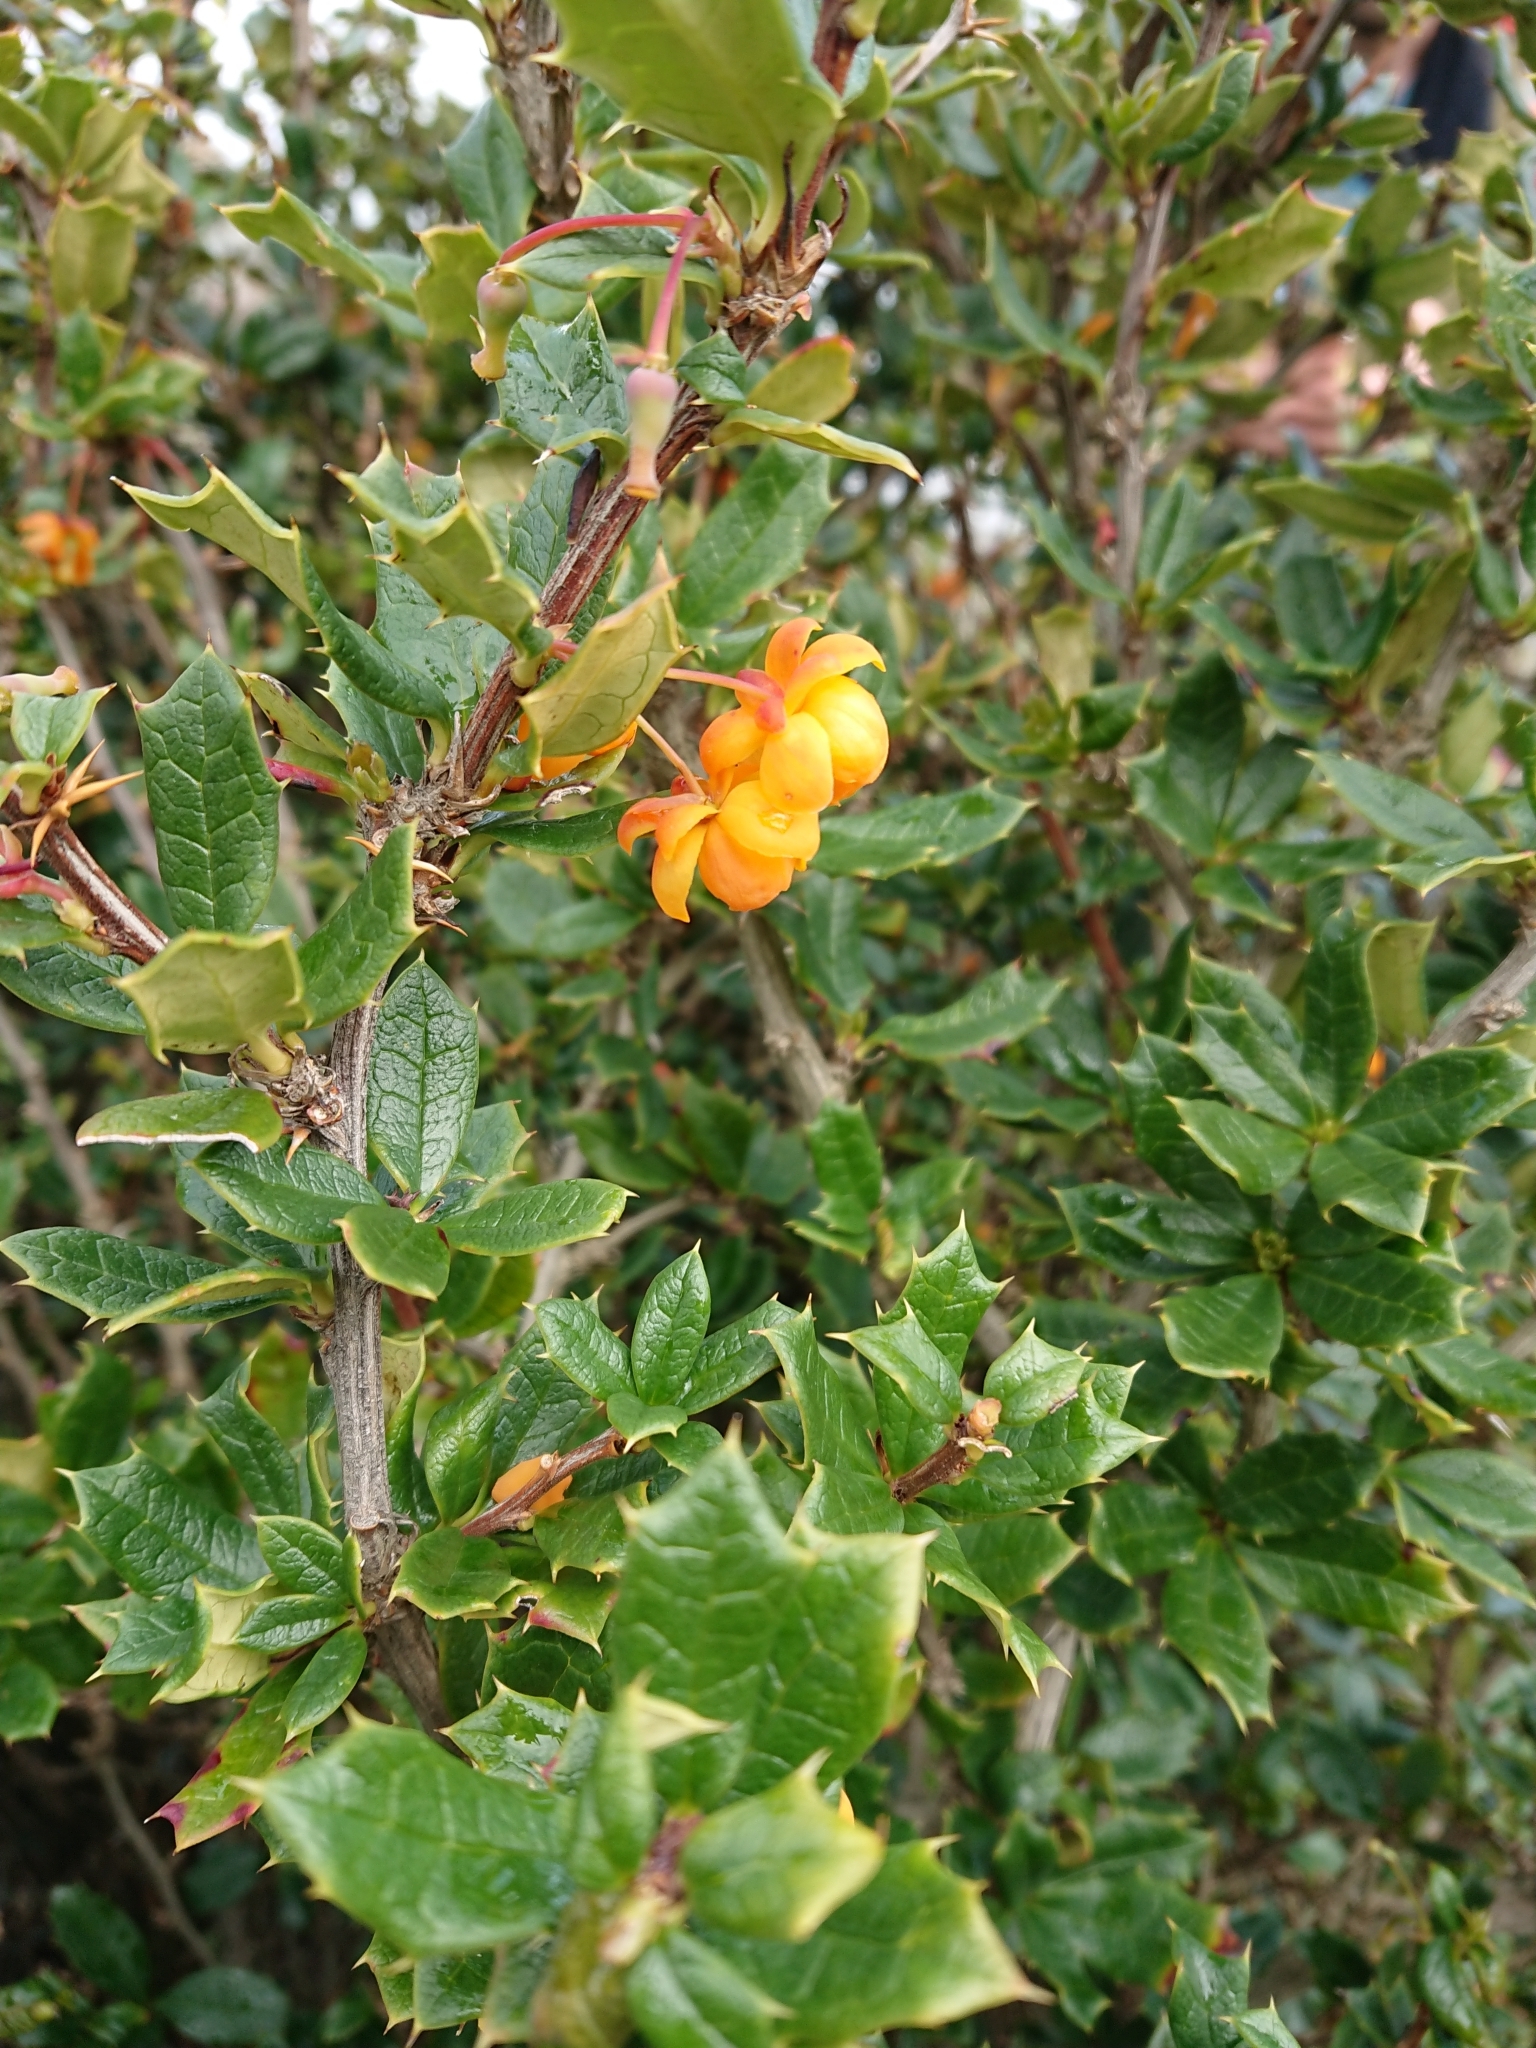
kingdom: Plantae
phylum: Tracheophyta
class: Magnoliopsida
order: Ranunculales
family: Berberidaceae
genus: Berberis
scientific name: Berberis ilicifolia
